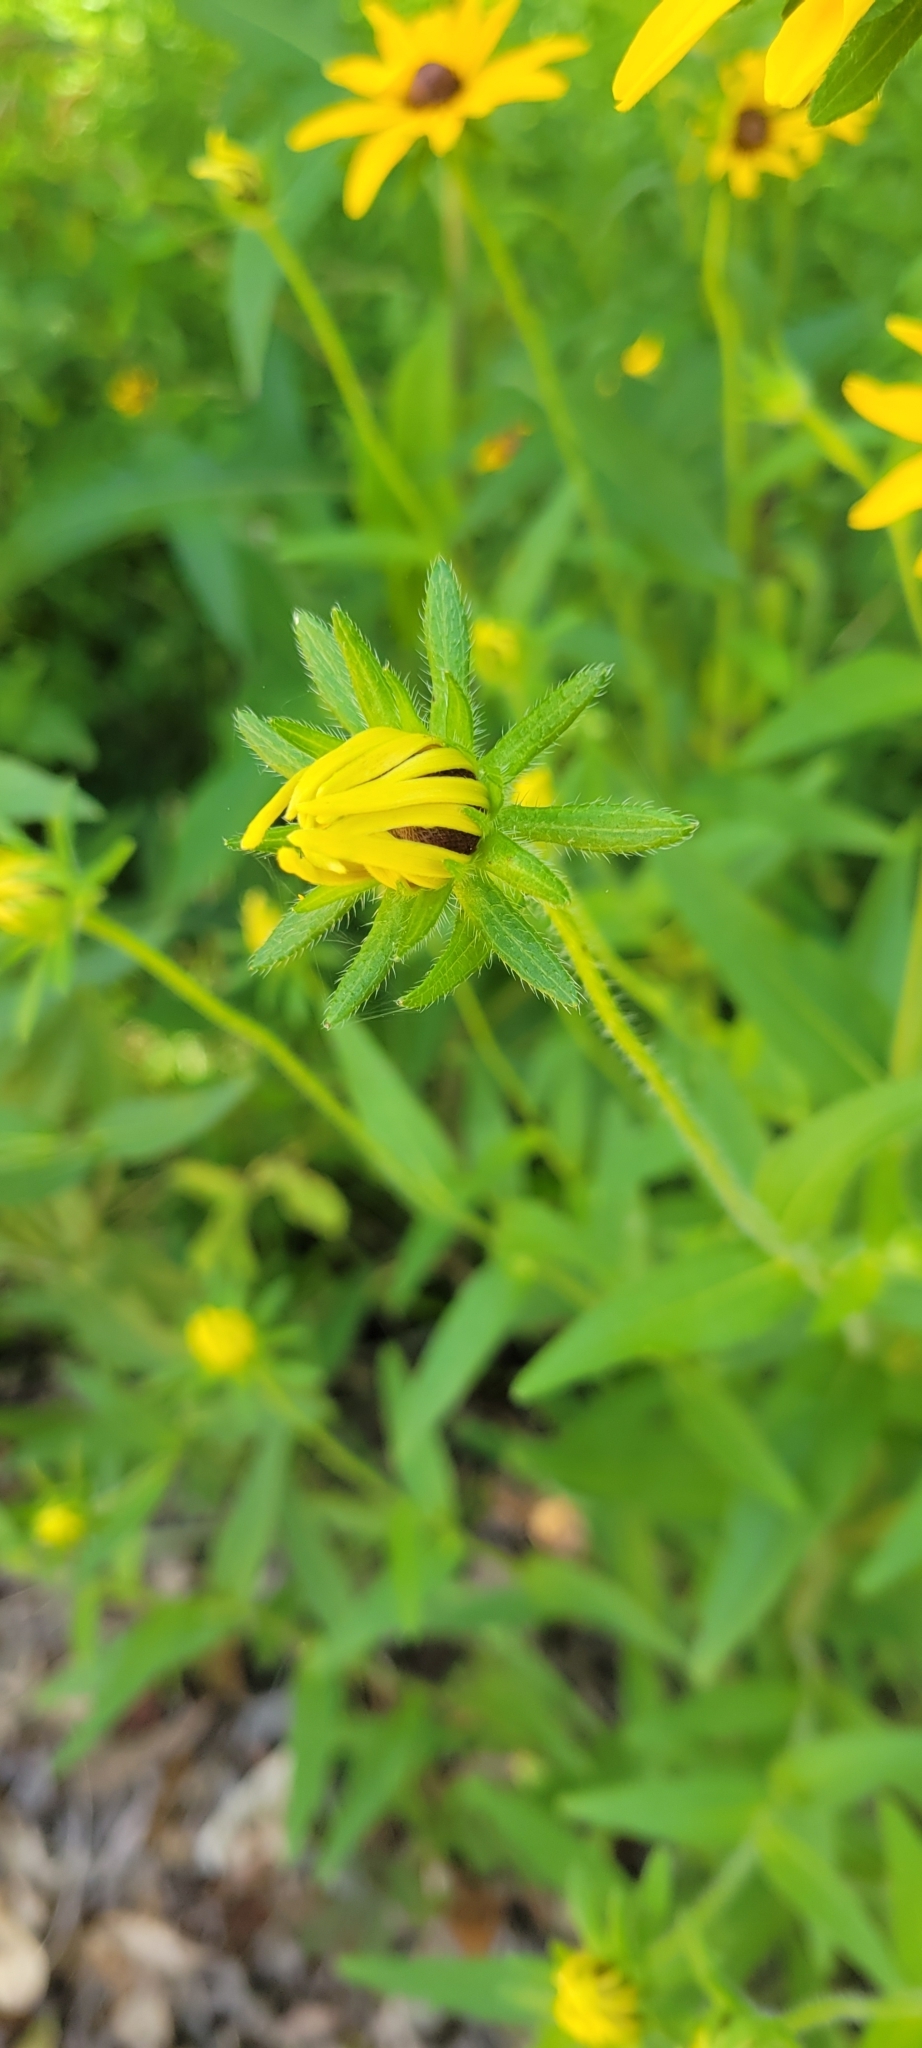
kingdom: Plantae
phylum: Tracheophyta
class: Magnoliopsida
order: Asterales
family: Asteraceae
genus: Rudbeckia
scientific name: Rudbeckia hirta
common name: Black-eyed-susan
